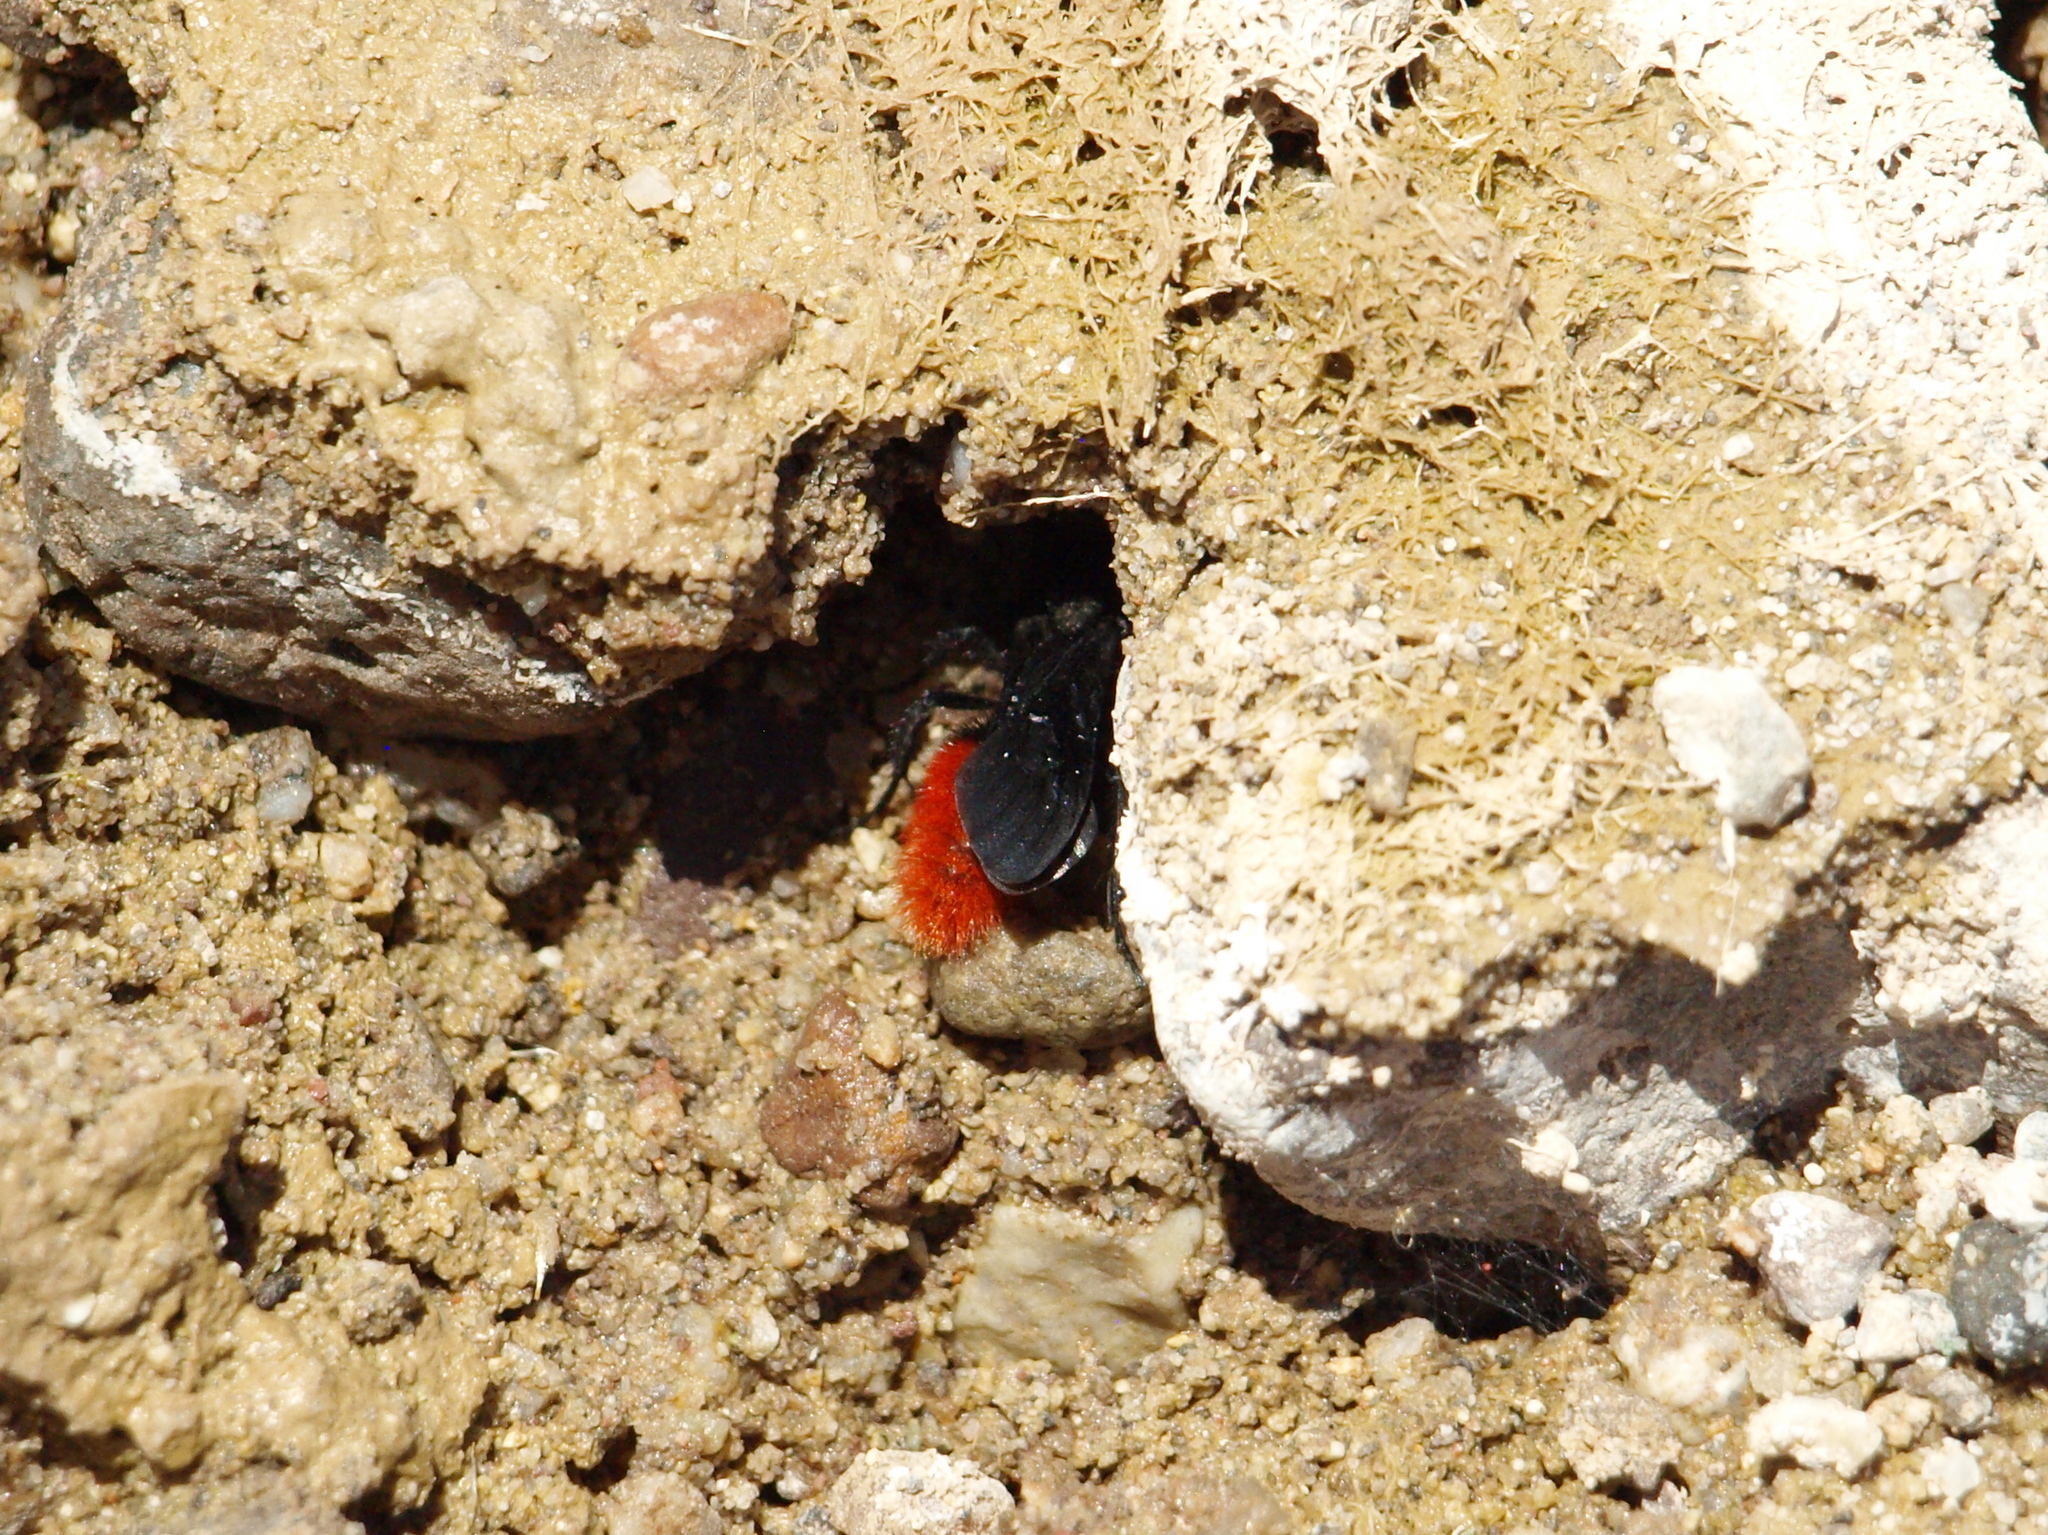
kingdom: Animalia
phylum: Arthropoda
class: Insecta
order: Hymenoptera
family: Mutillidae
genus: Dasymutilla
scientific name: Dasymutilla magnifica
